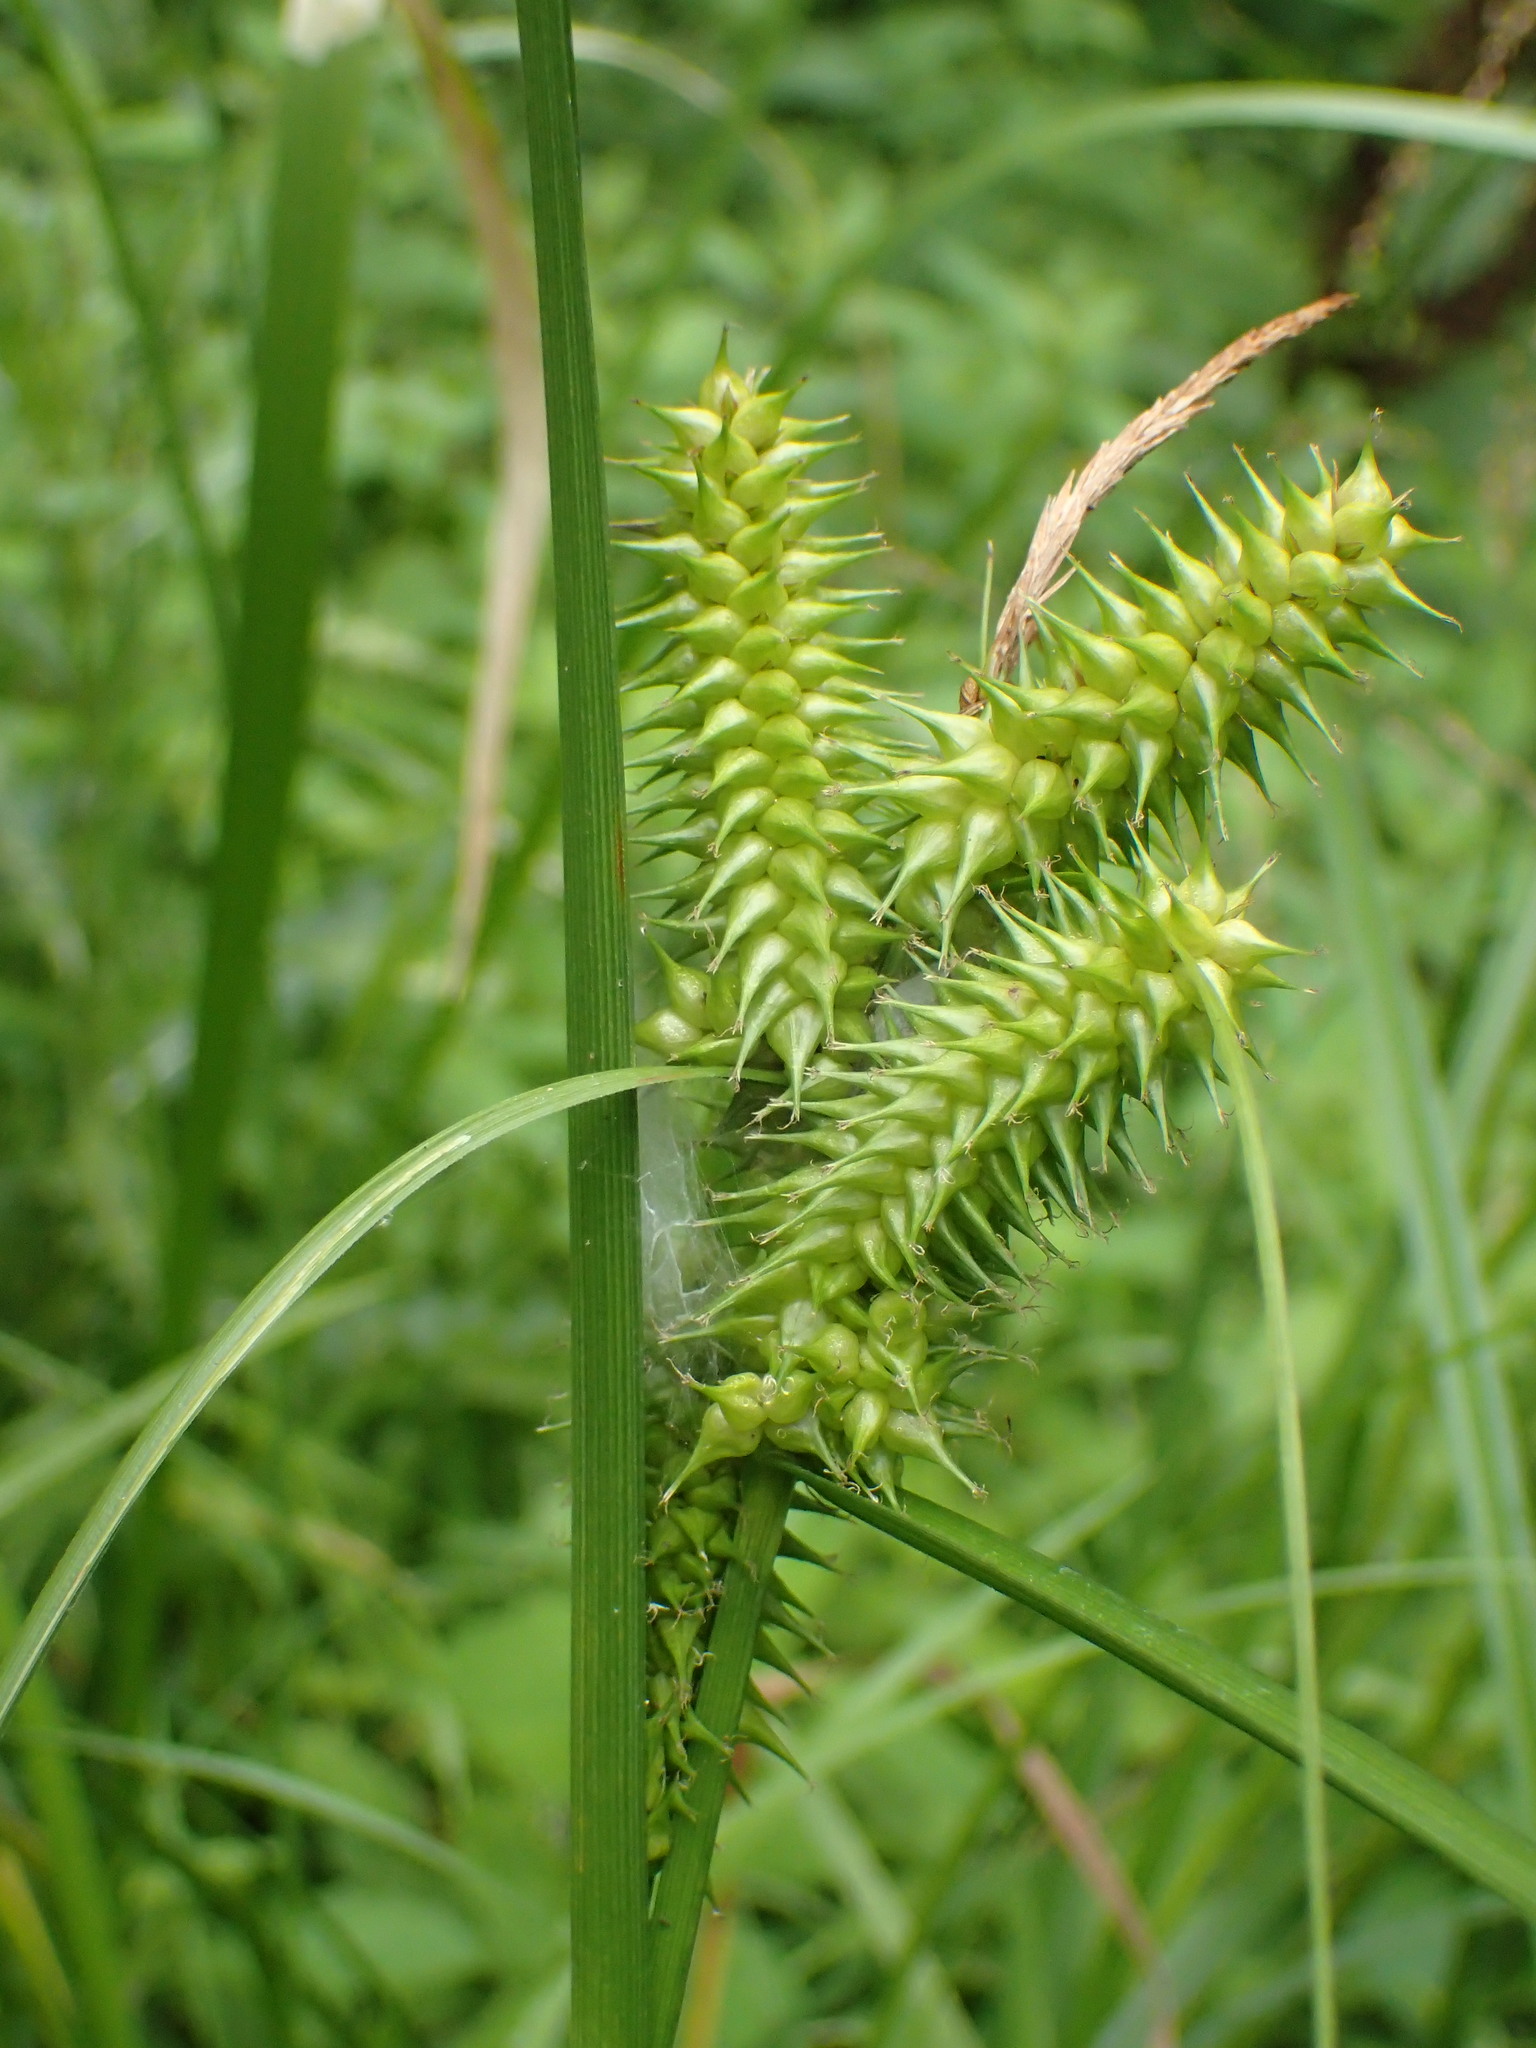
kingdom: Plantae
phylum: Tracheophyta
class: Liliopsida
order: Poales
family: Cyperaceae
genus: Carex
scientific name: Carex retrorsa
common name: Knot-sheath sedge
